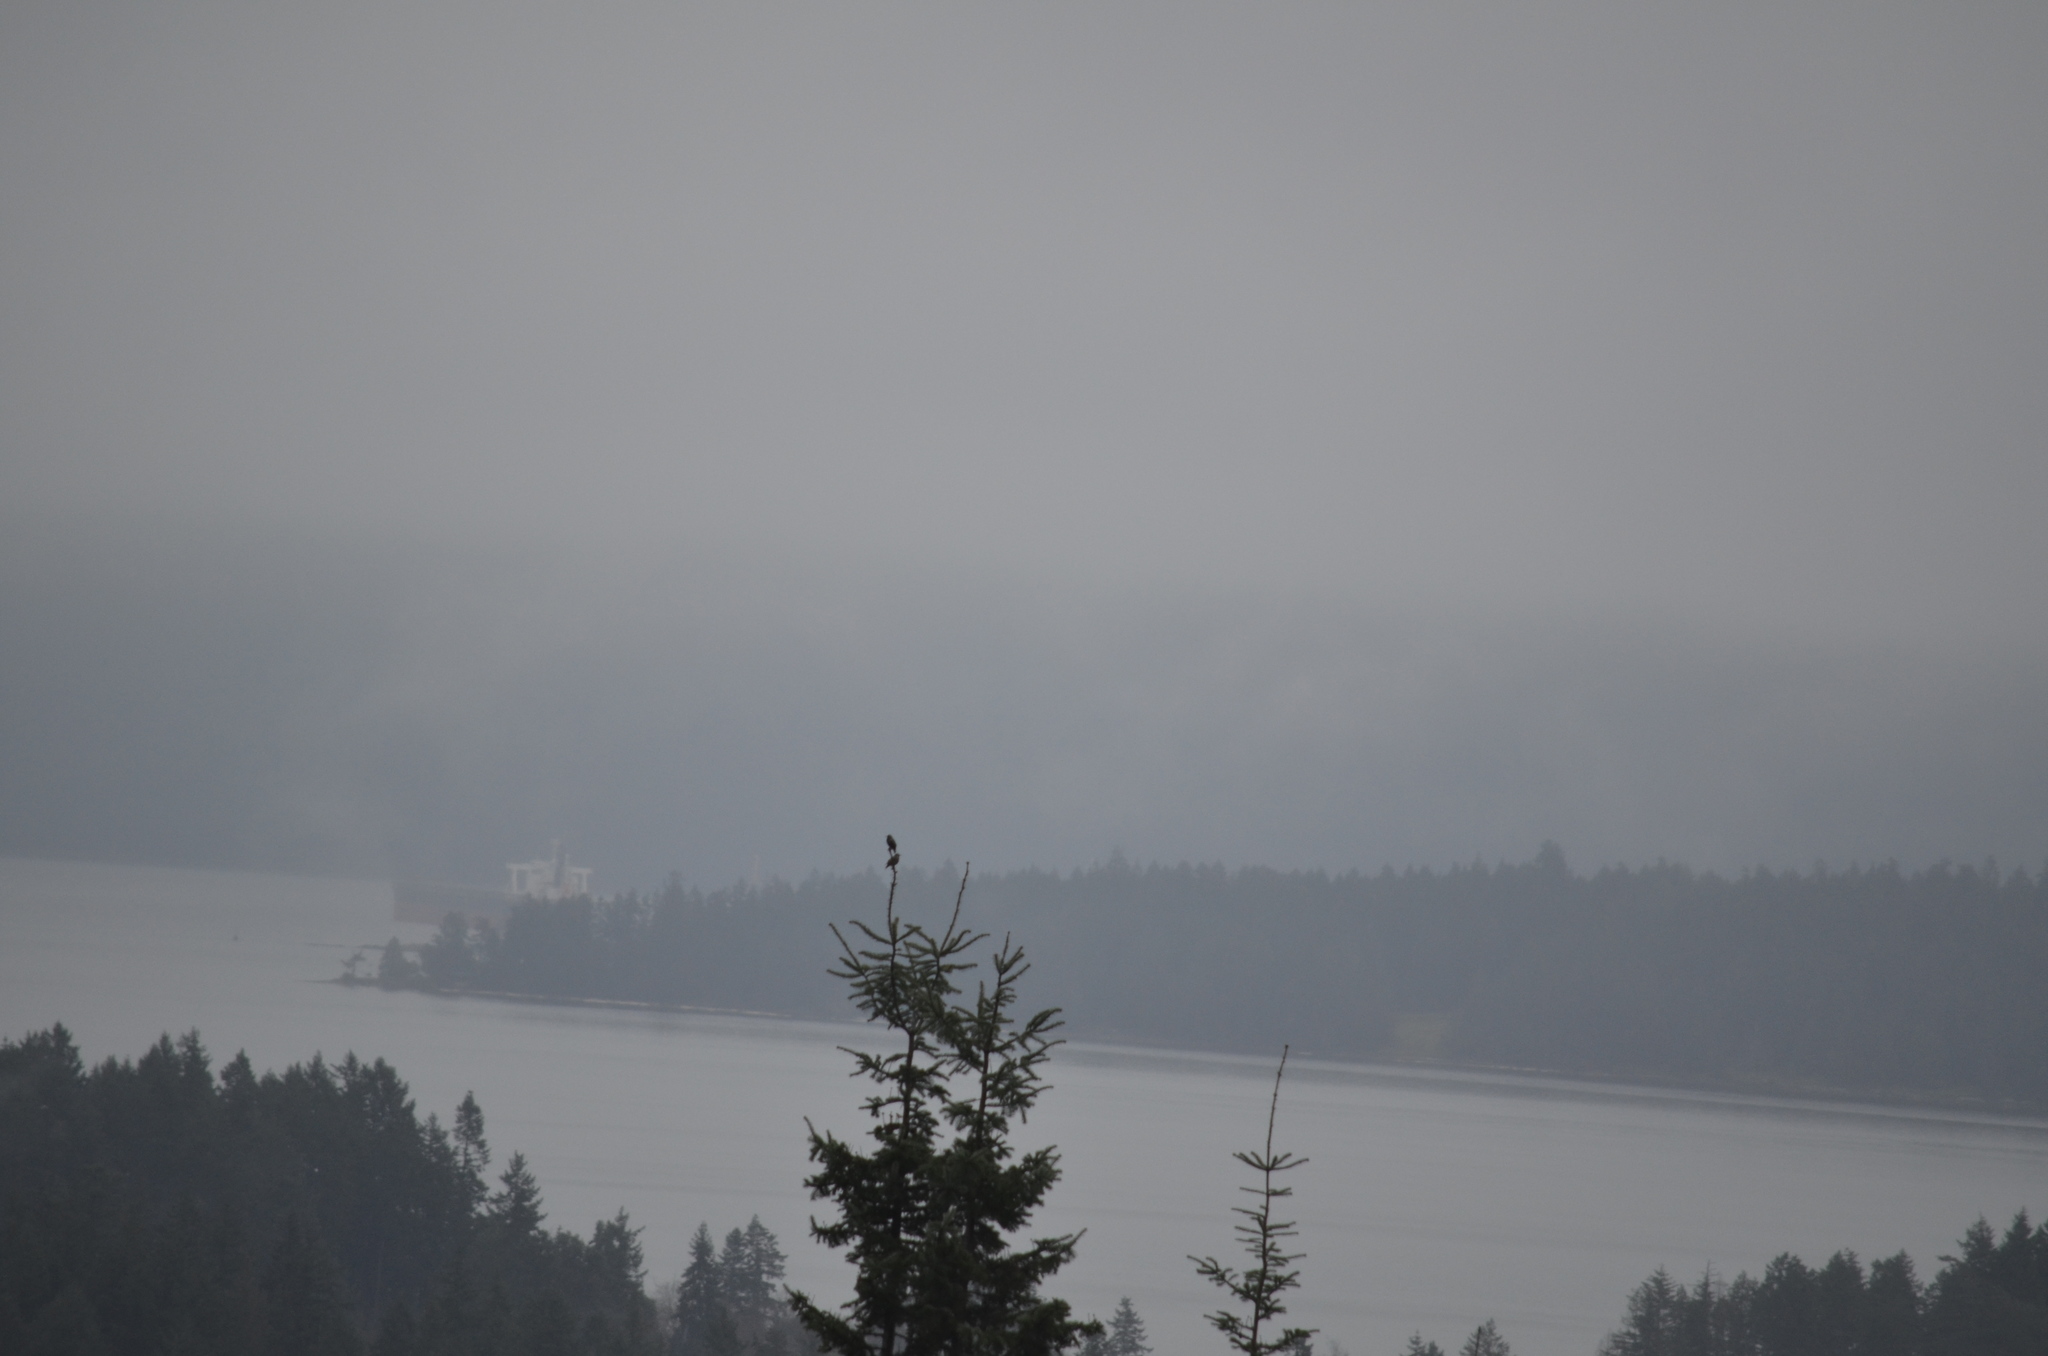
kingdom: Animalia
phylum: Chordata
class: Aves
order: Passeriformes
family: Sturnidae
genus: Sturnus
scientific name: Sturnus vulgaris
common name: Common starling
